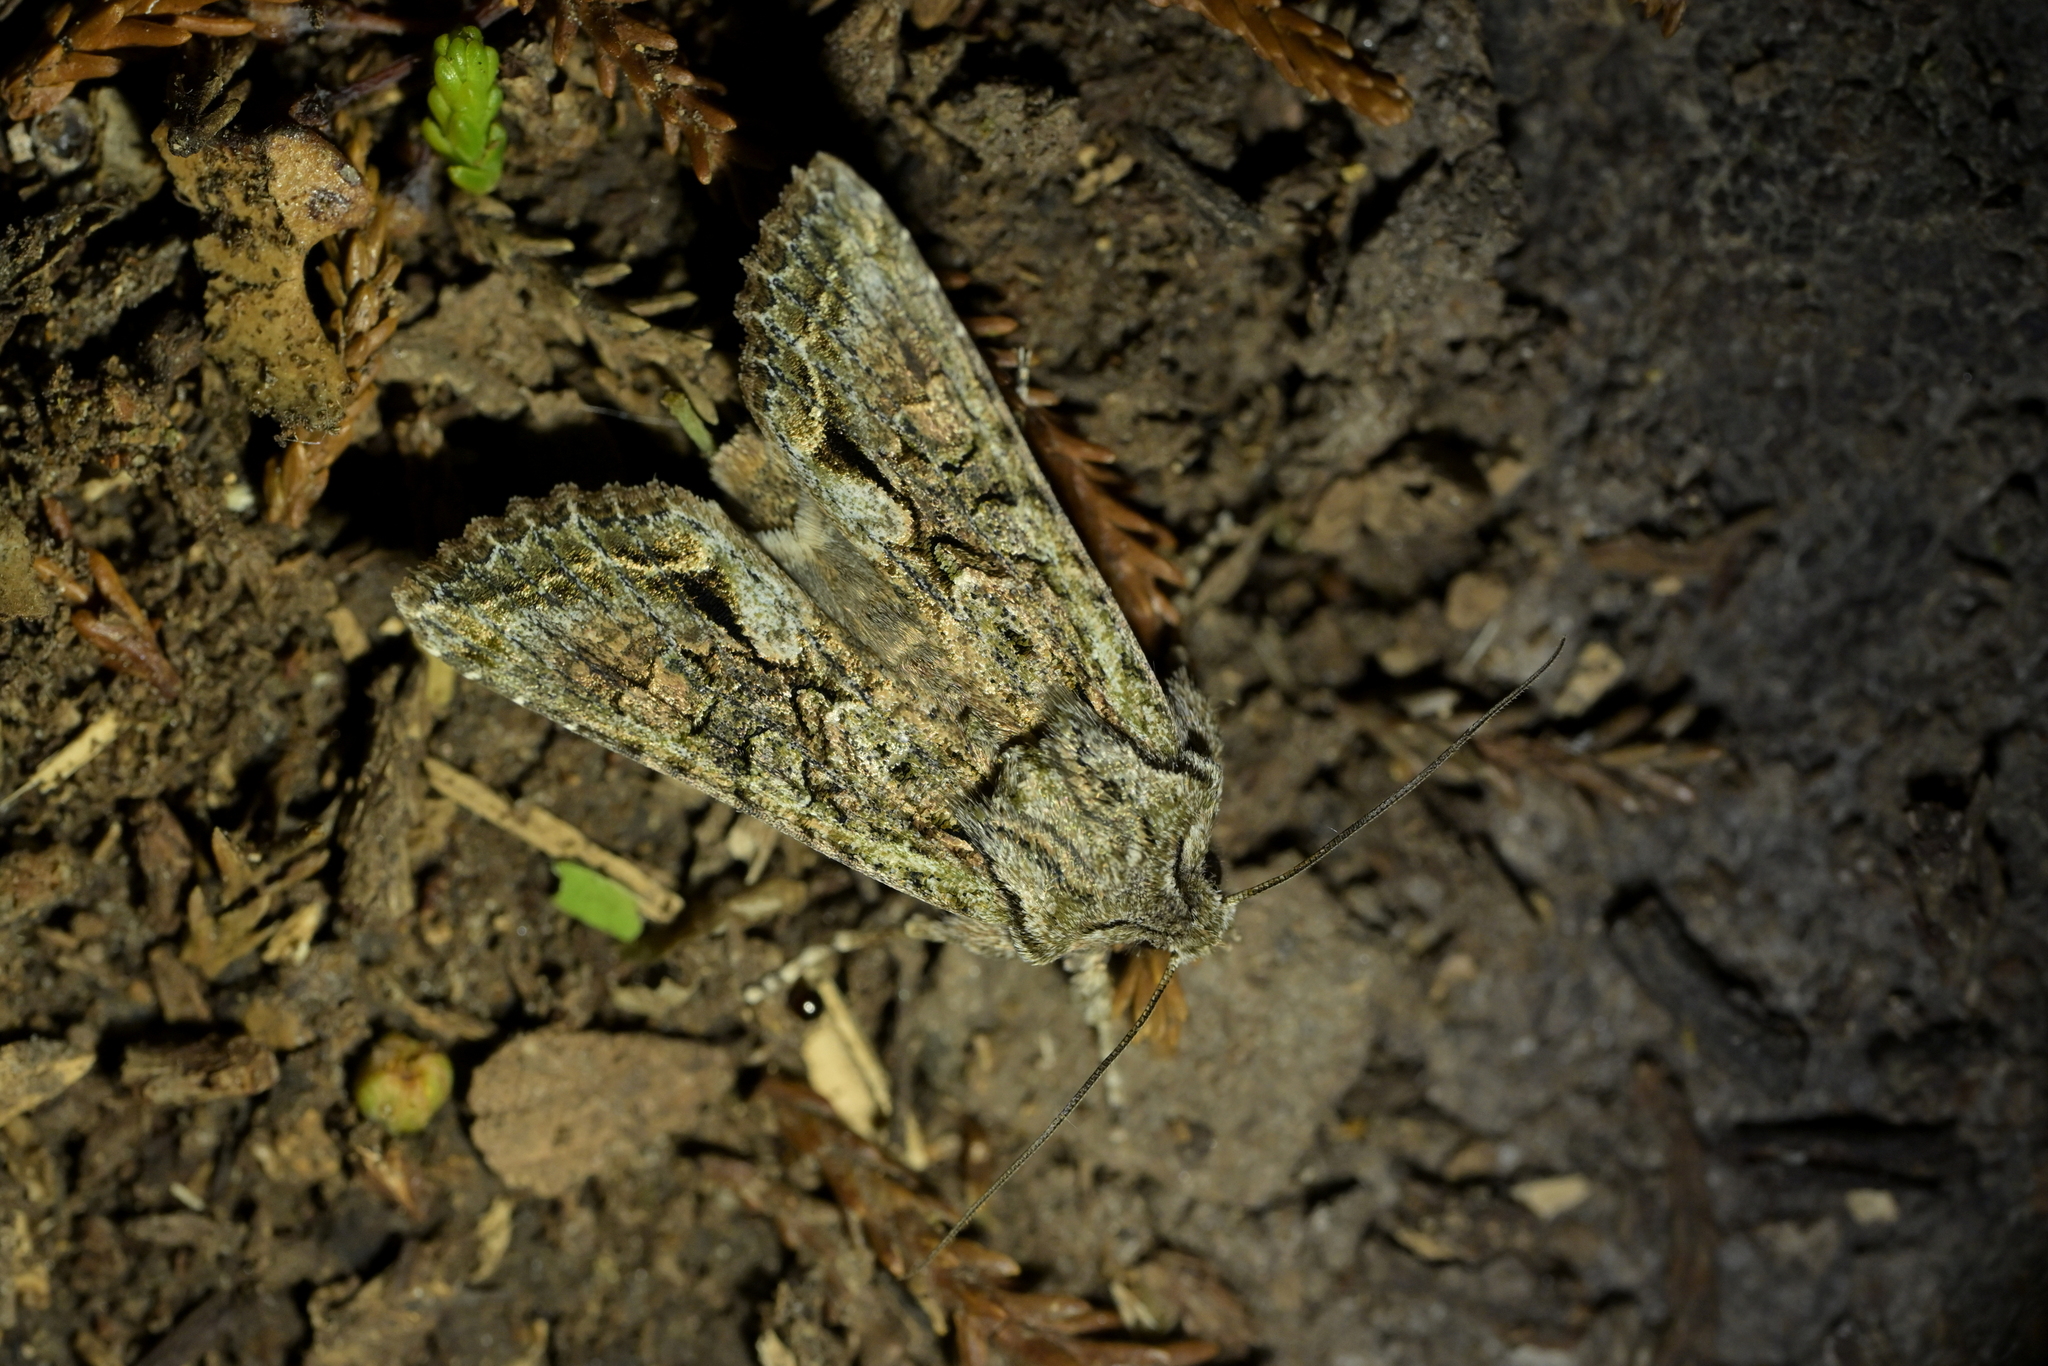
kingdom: Animalia
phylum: Arthropoda
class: Insecta
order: Lepidoptera
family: Noctuidae
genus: Ichneutica
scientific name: Ichneutica mutans
